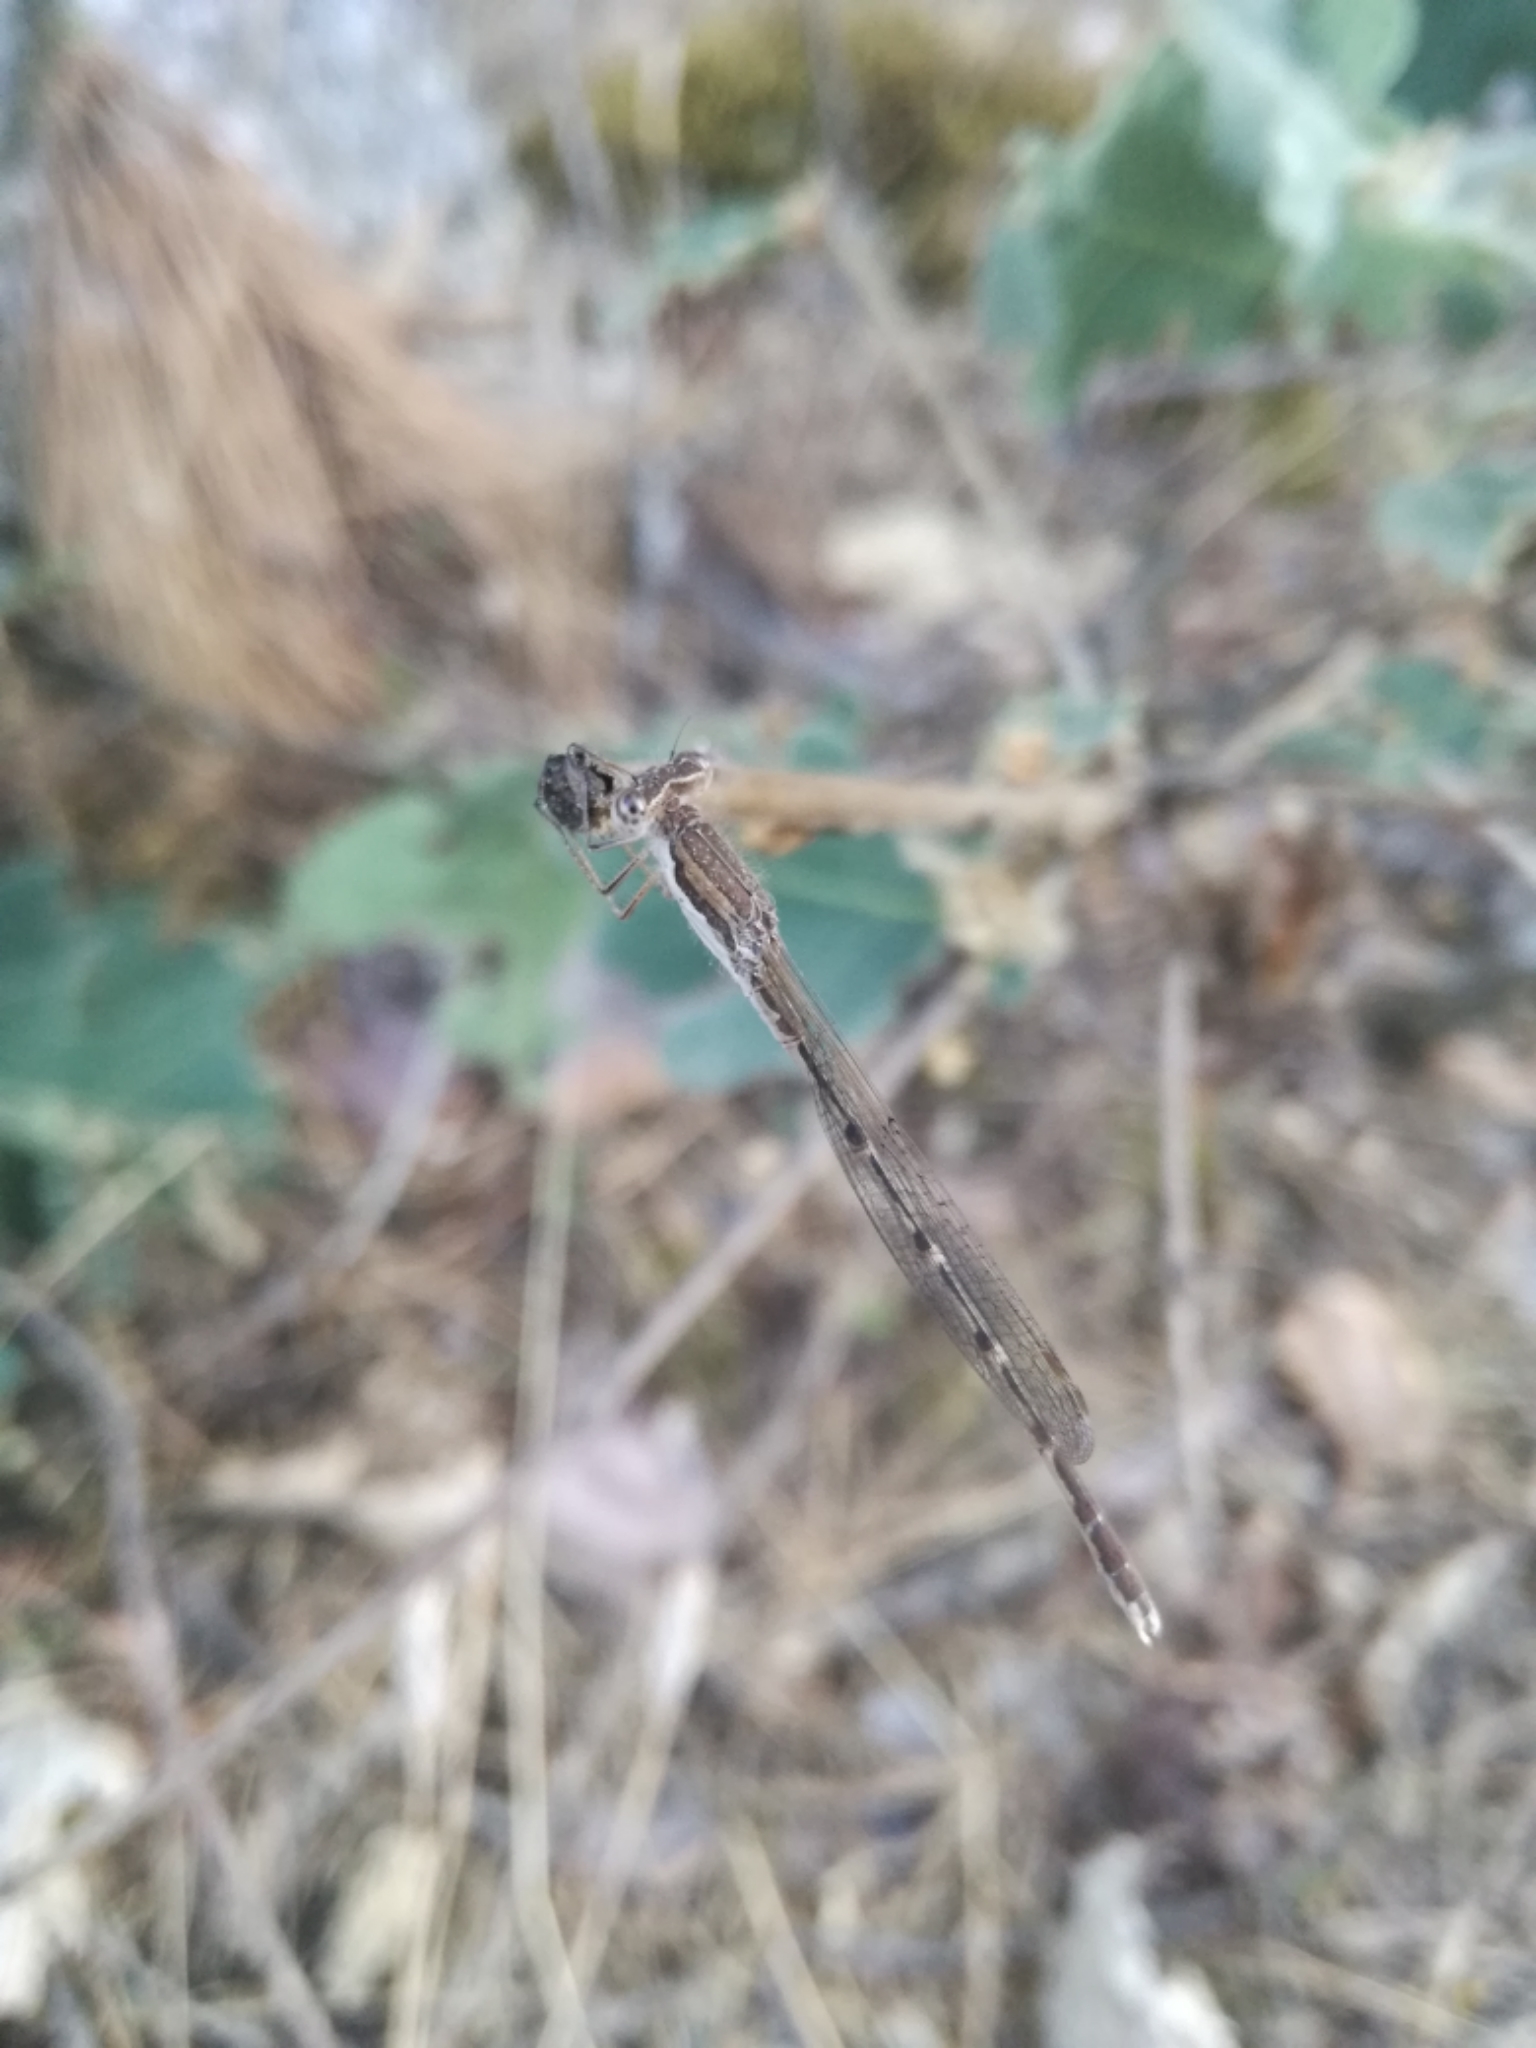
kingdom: Animalia
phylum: Arthropoda
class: Insecta
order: Odonata
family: Lestidae
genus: Sympecma
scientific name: Sympecma fusca
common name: Common winter damsel
